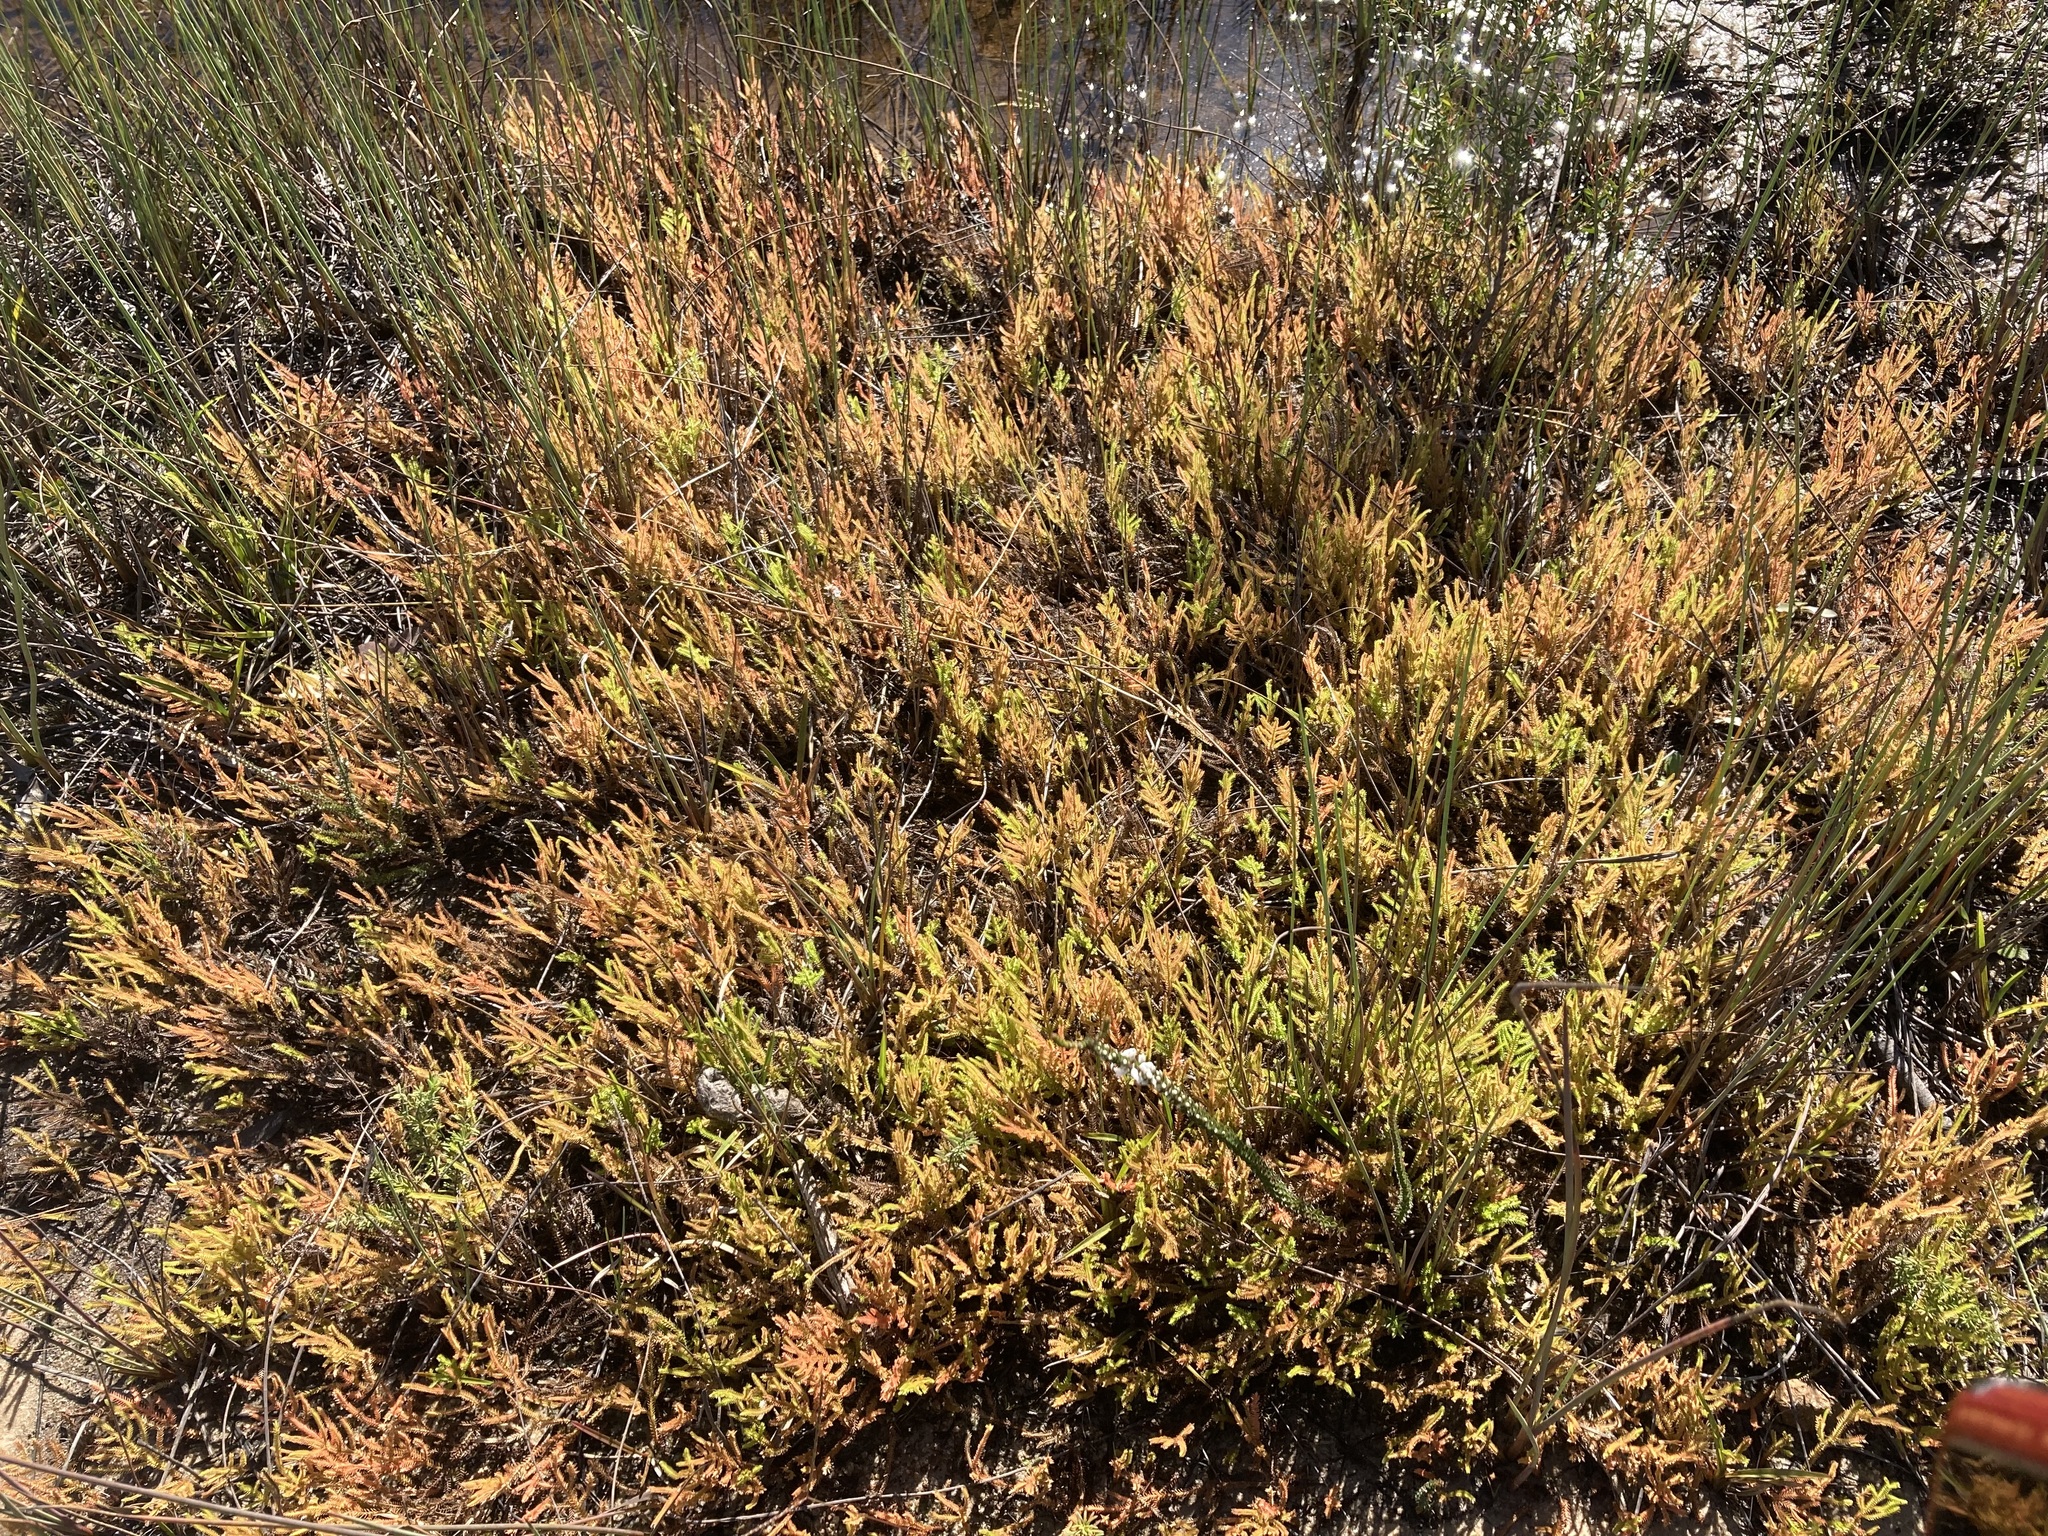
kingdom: Plantae
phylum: Tracheophyta
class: Lycopodiopsida
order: Selaginellales
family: Selaginellaceae
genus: Selaginella
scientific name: Selaginella uliginosa
